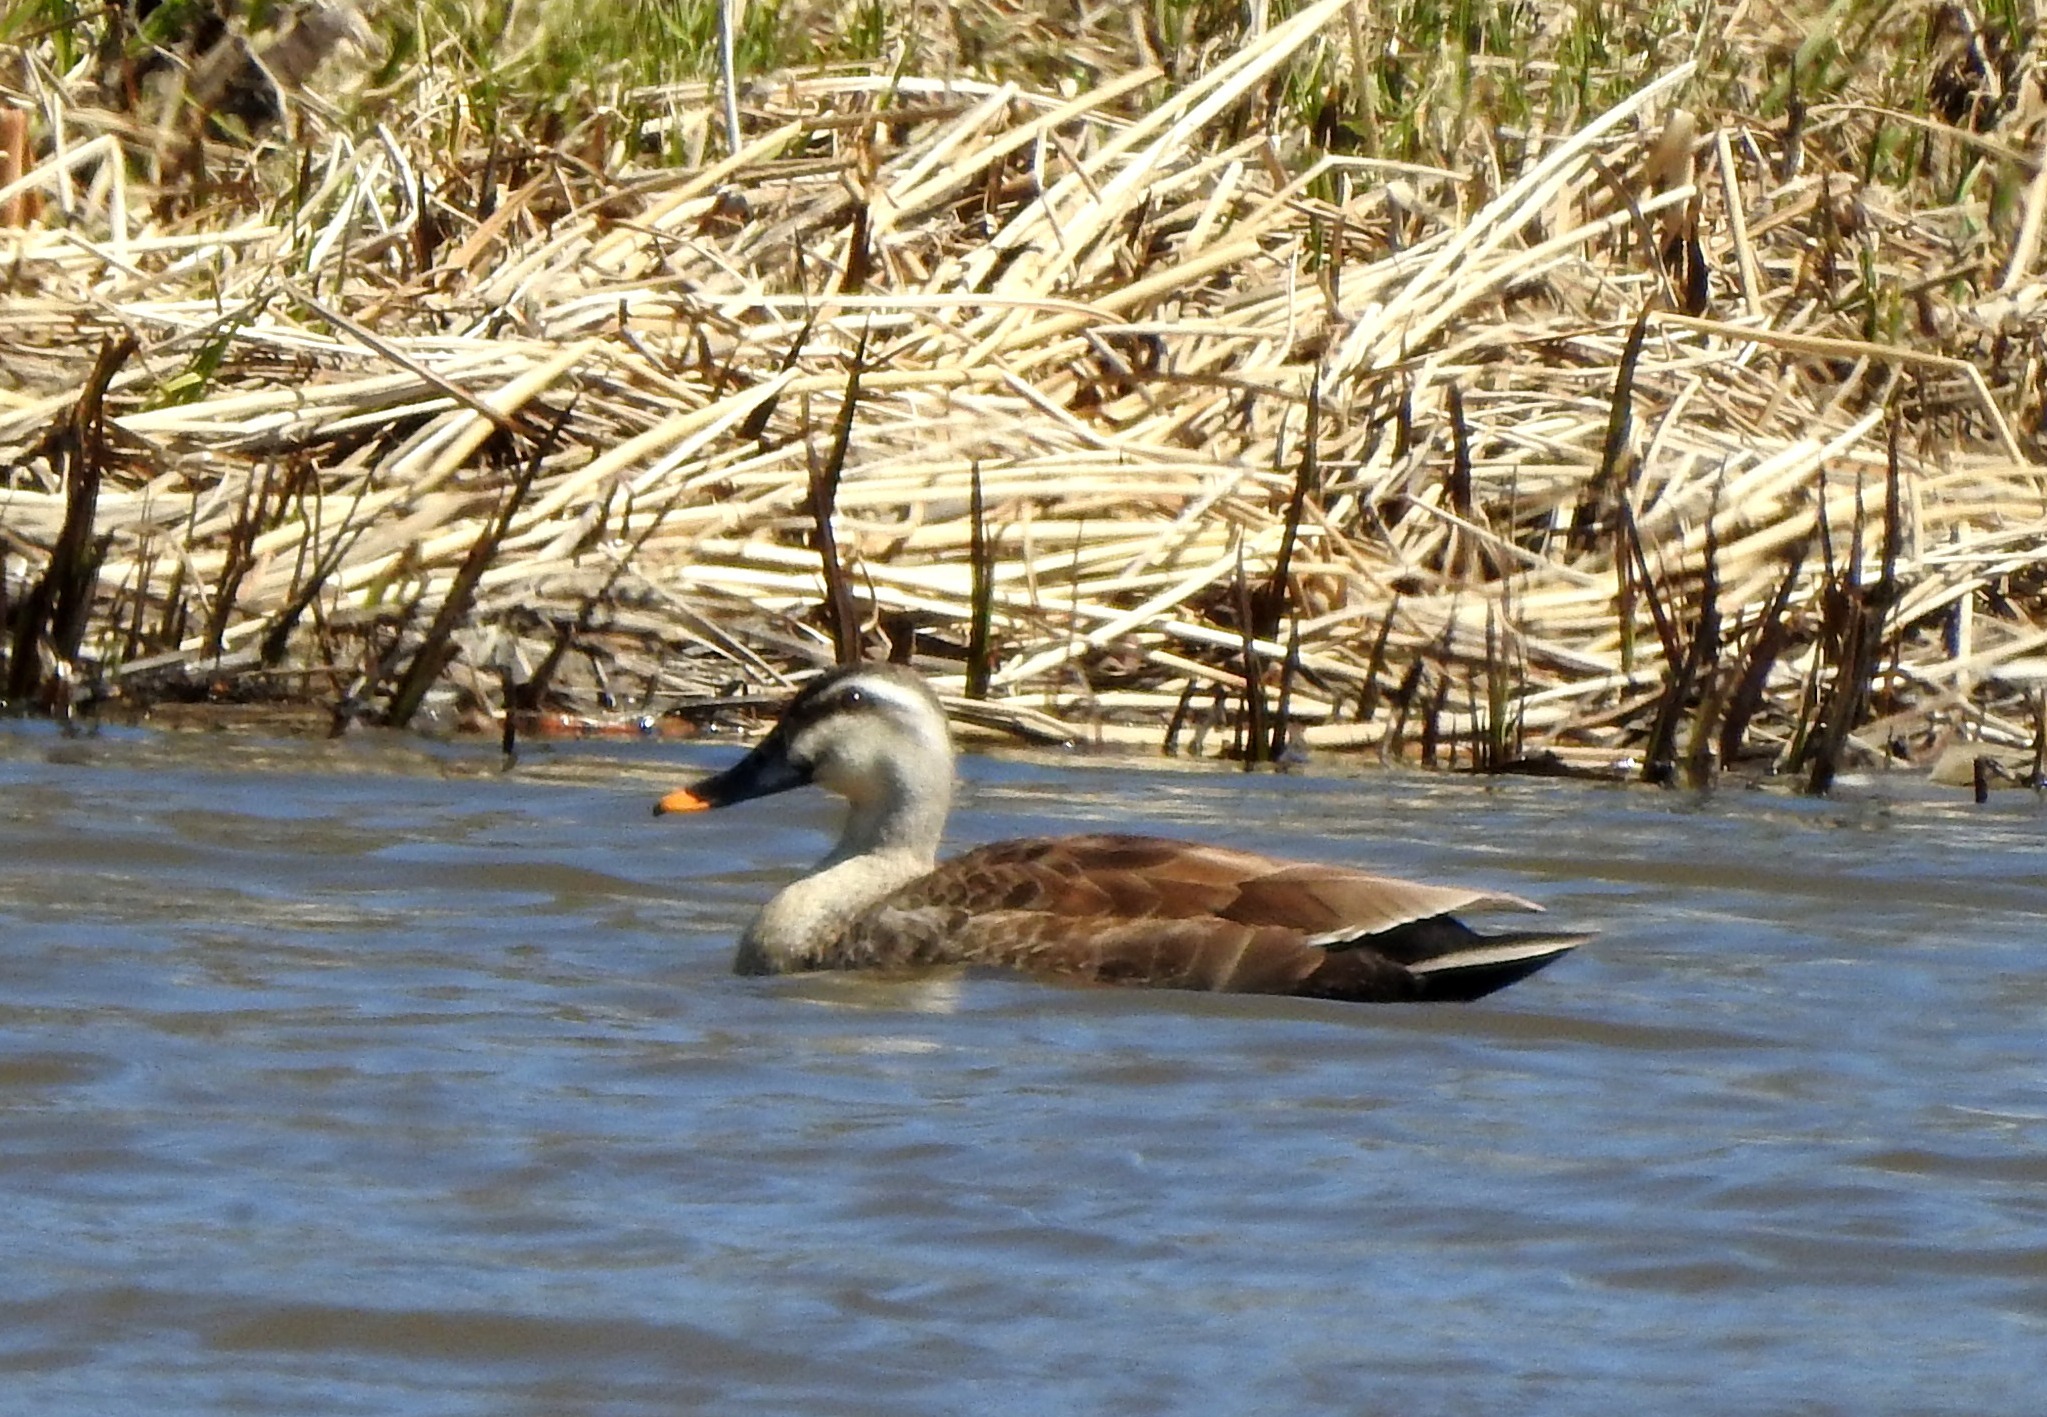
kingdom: Animalia
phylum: Chordata
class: Aves
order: Anseriformes
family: Anatidae
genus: Anas
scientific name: Anas zonorhyncha
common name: Eastern spot-billed duck
